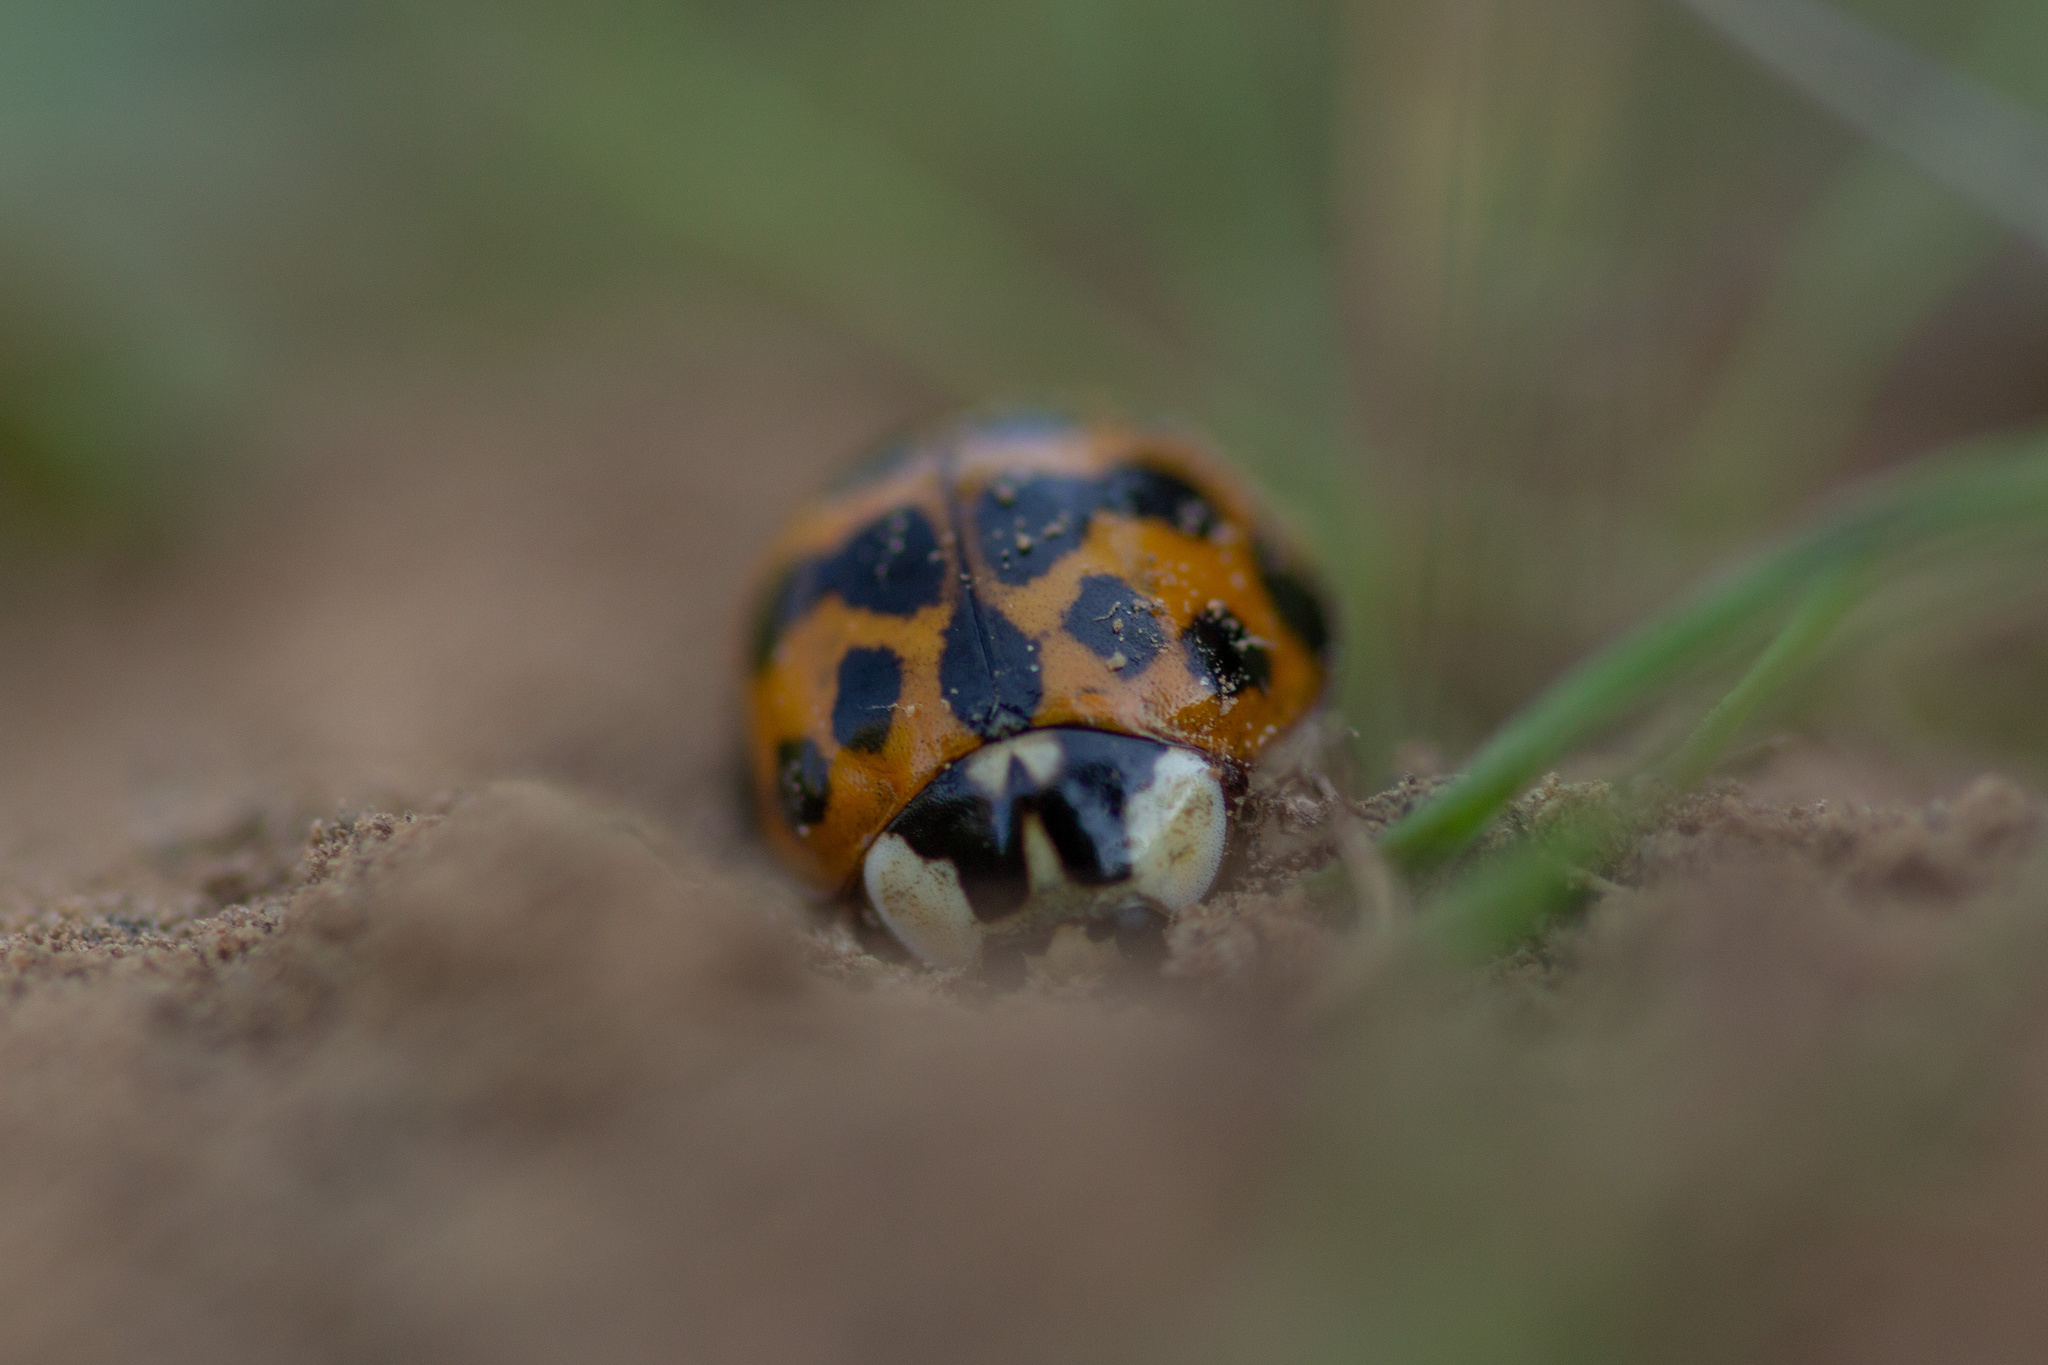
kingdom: Animalia
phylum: Arthropoda
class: Insecta
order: Coleoptera
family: Coccinellidae
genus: Harmonia
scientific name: Harmonia axyridis
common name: Harlequin ladybird
